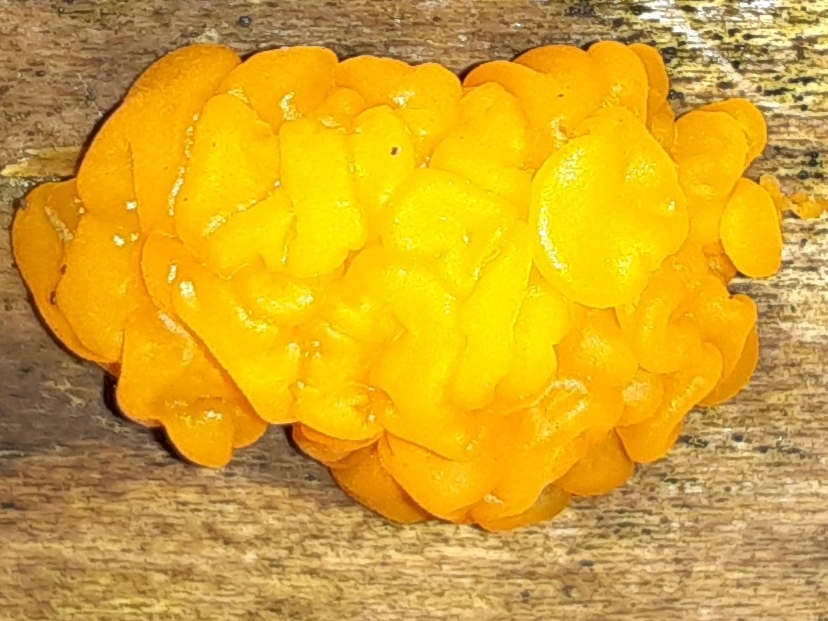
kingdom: Fungi
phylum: Basidiomycota
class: Dacrymycetes
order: Dacrymycetales
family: Dacrymycetaceae
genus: Dacrymyces
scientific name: Dacrymyces chrysospermus
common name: Orange jelly spot
